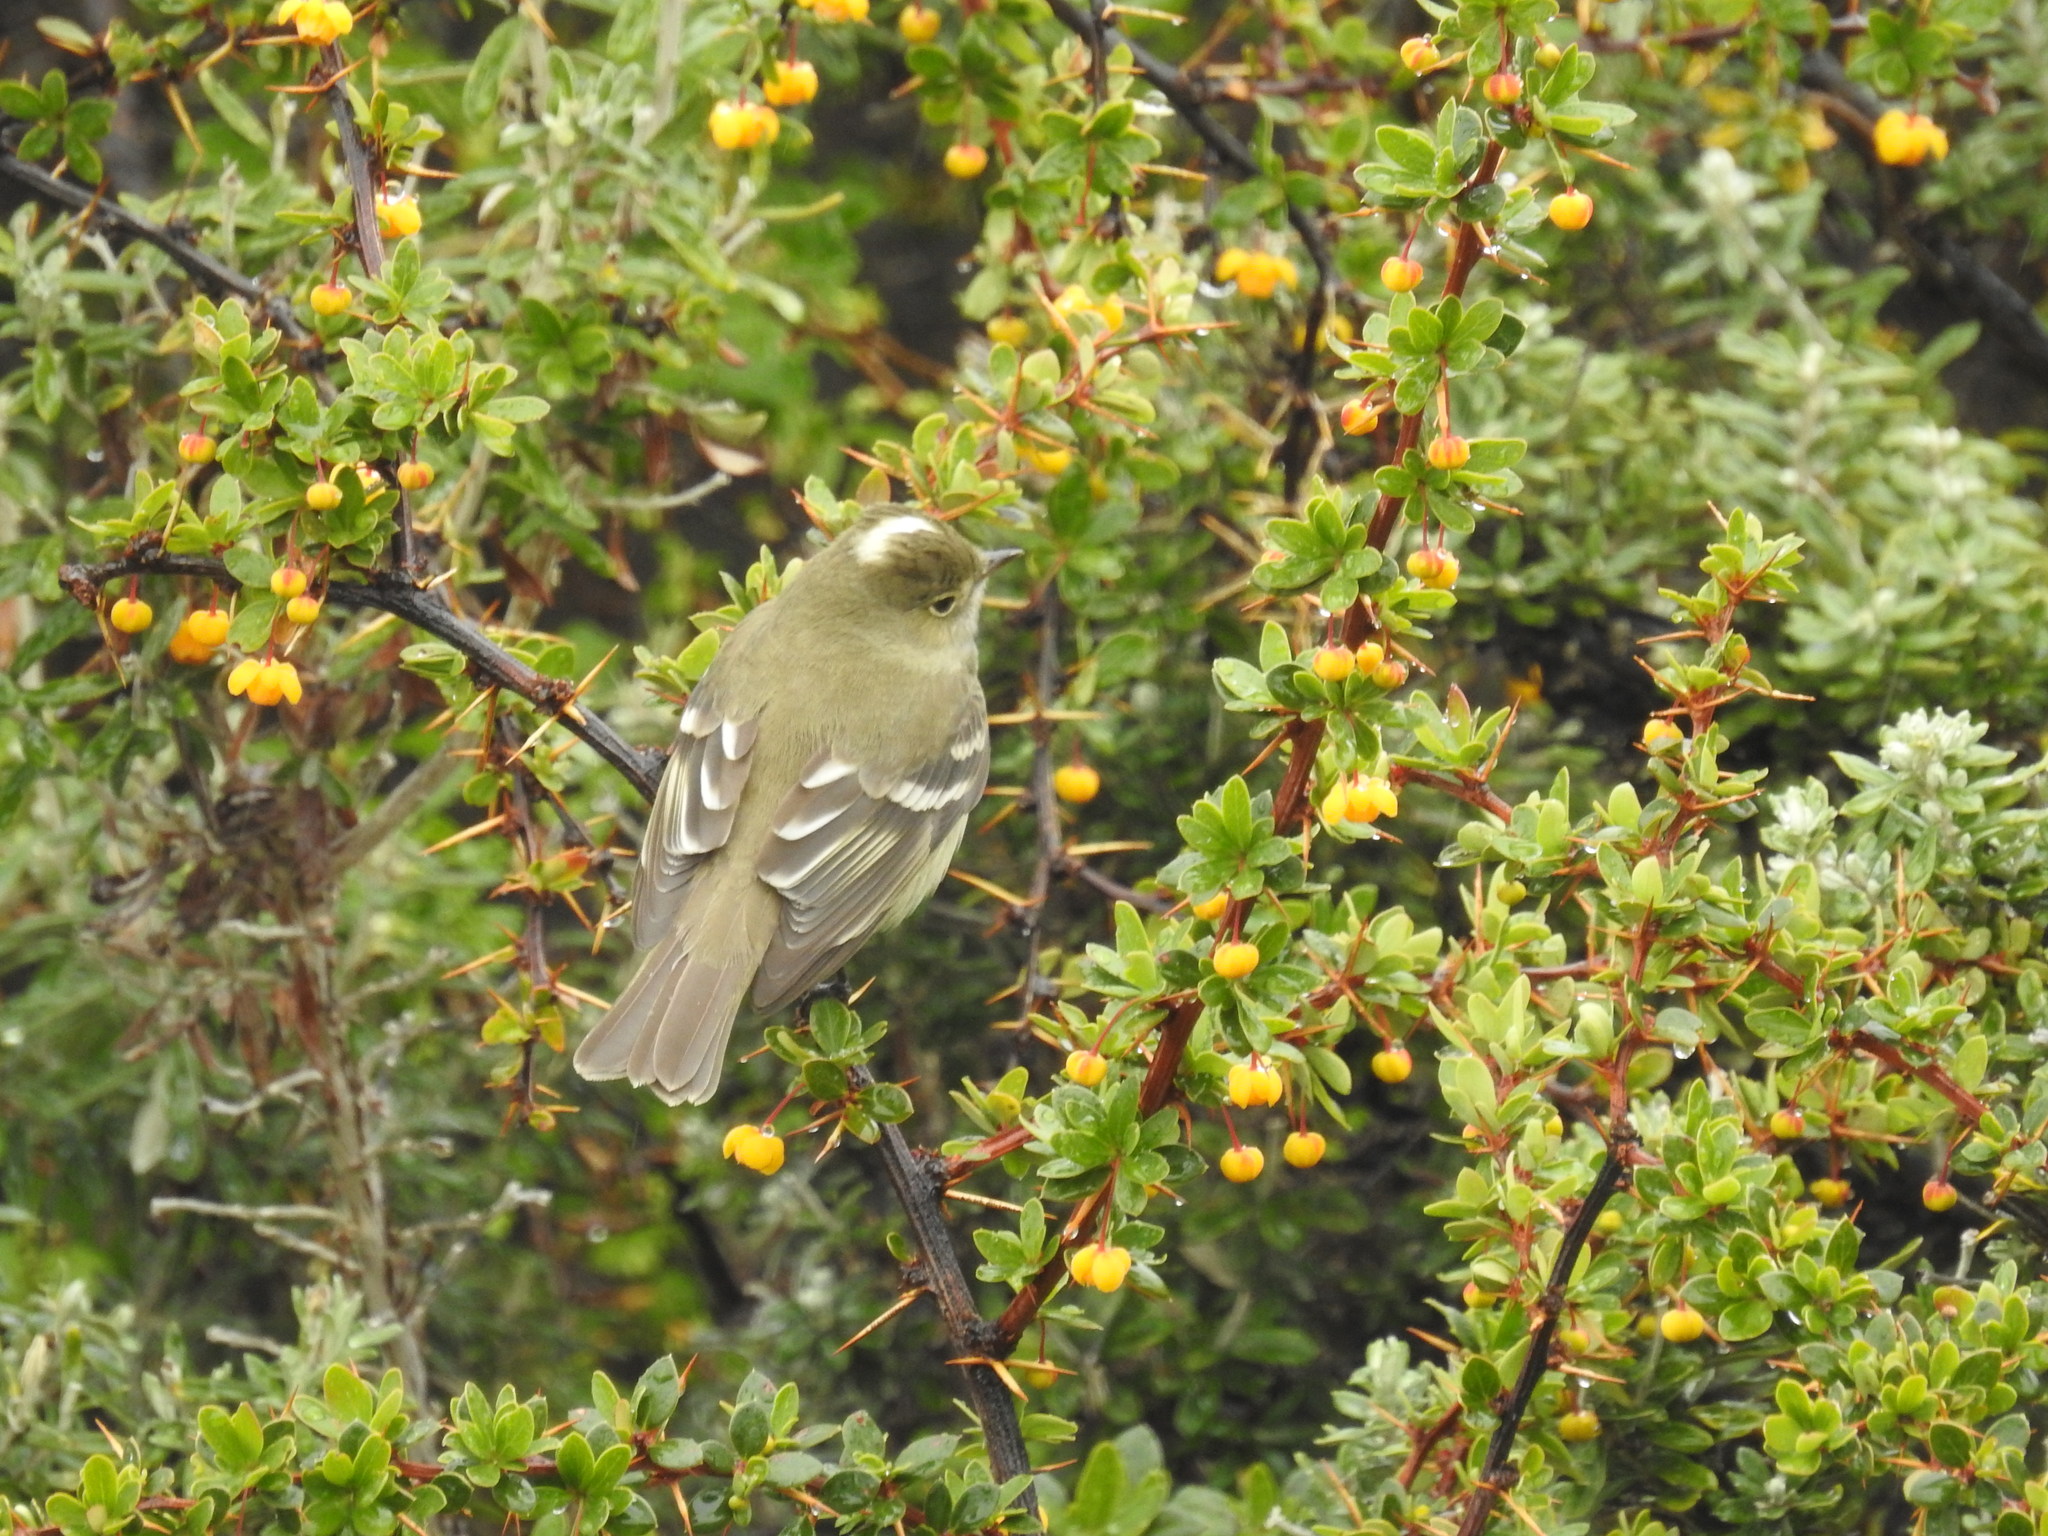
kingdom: Animalia
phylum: Chordata
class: Aves
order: Passeriformes
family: Tyrannidae
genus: Elaenia
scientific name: Elaenia albiceps
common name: White-crested elaenia
